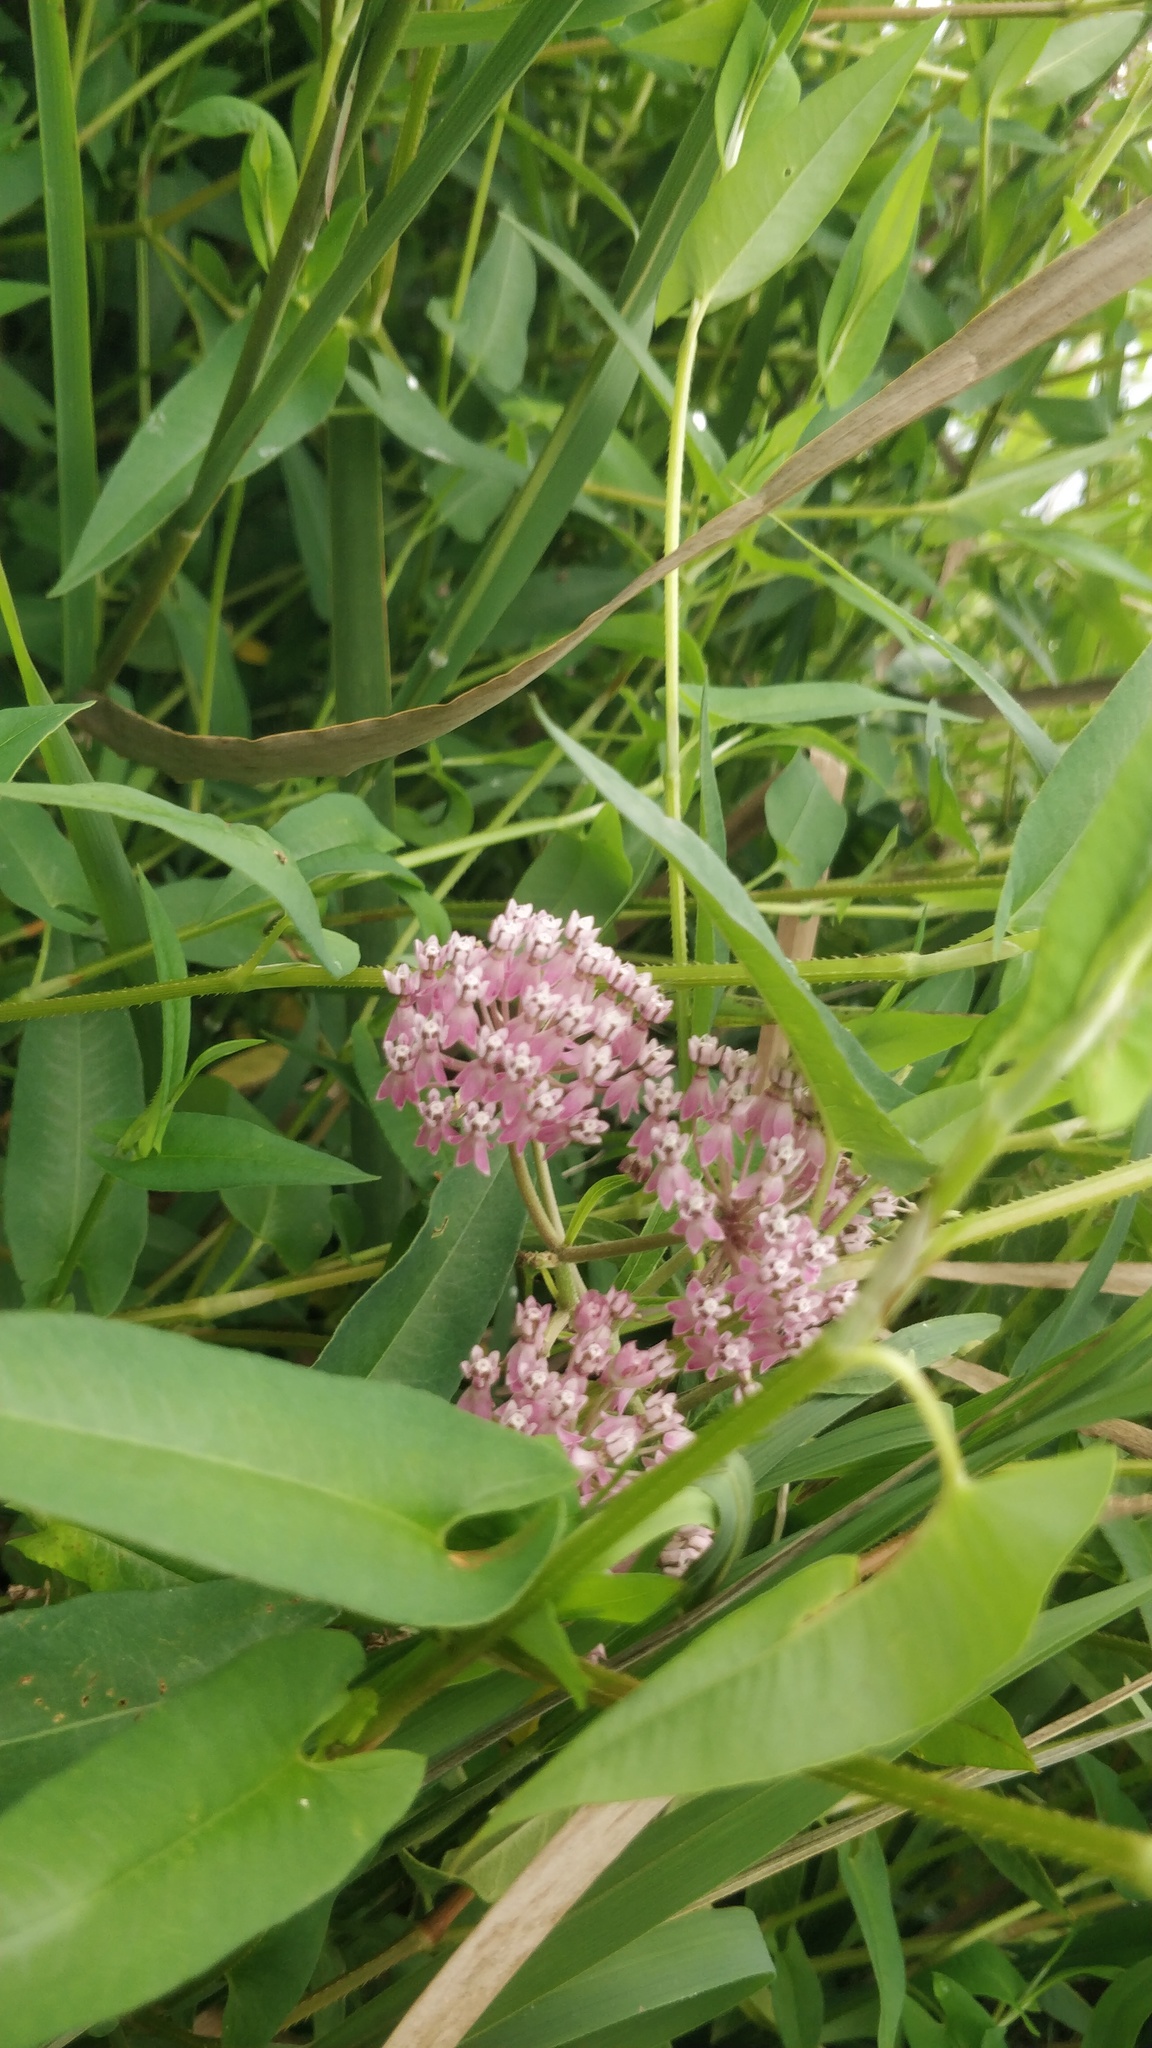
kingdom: Plantae
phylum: Tracheophyta
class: Magnoliopsida
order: Gentianales
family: Apocynaceae
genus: Asclepias
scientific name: Asclepias incarnata
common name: Swamp milkweed
